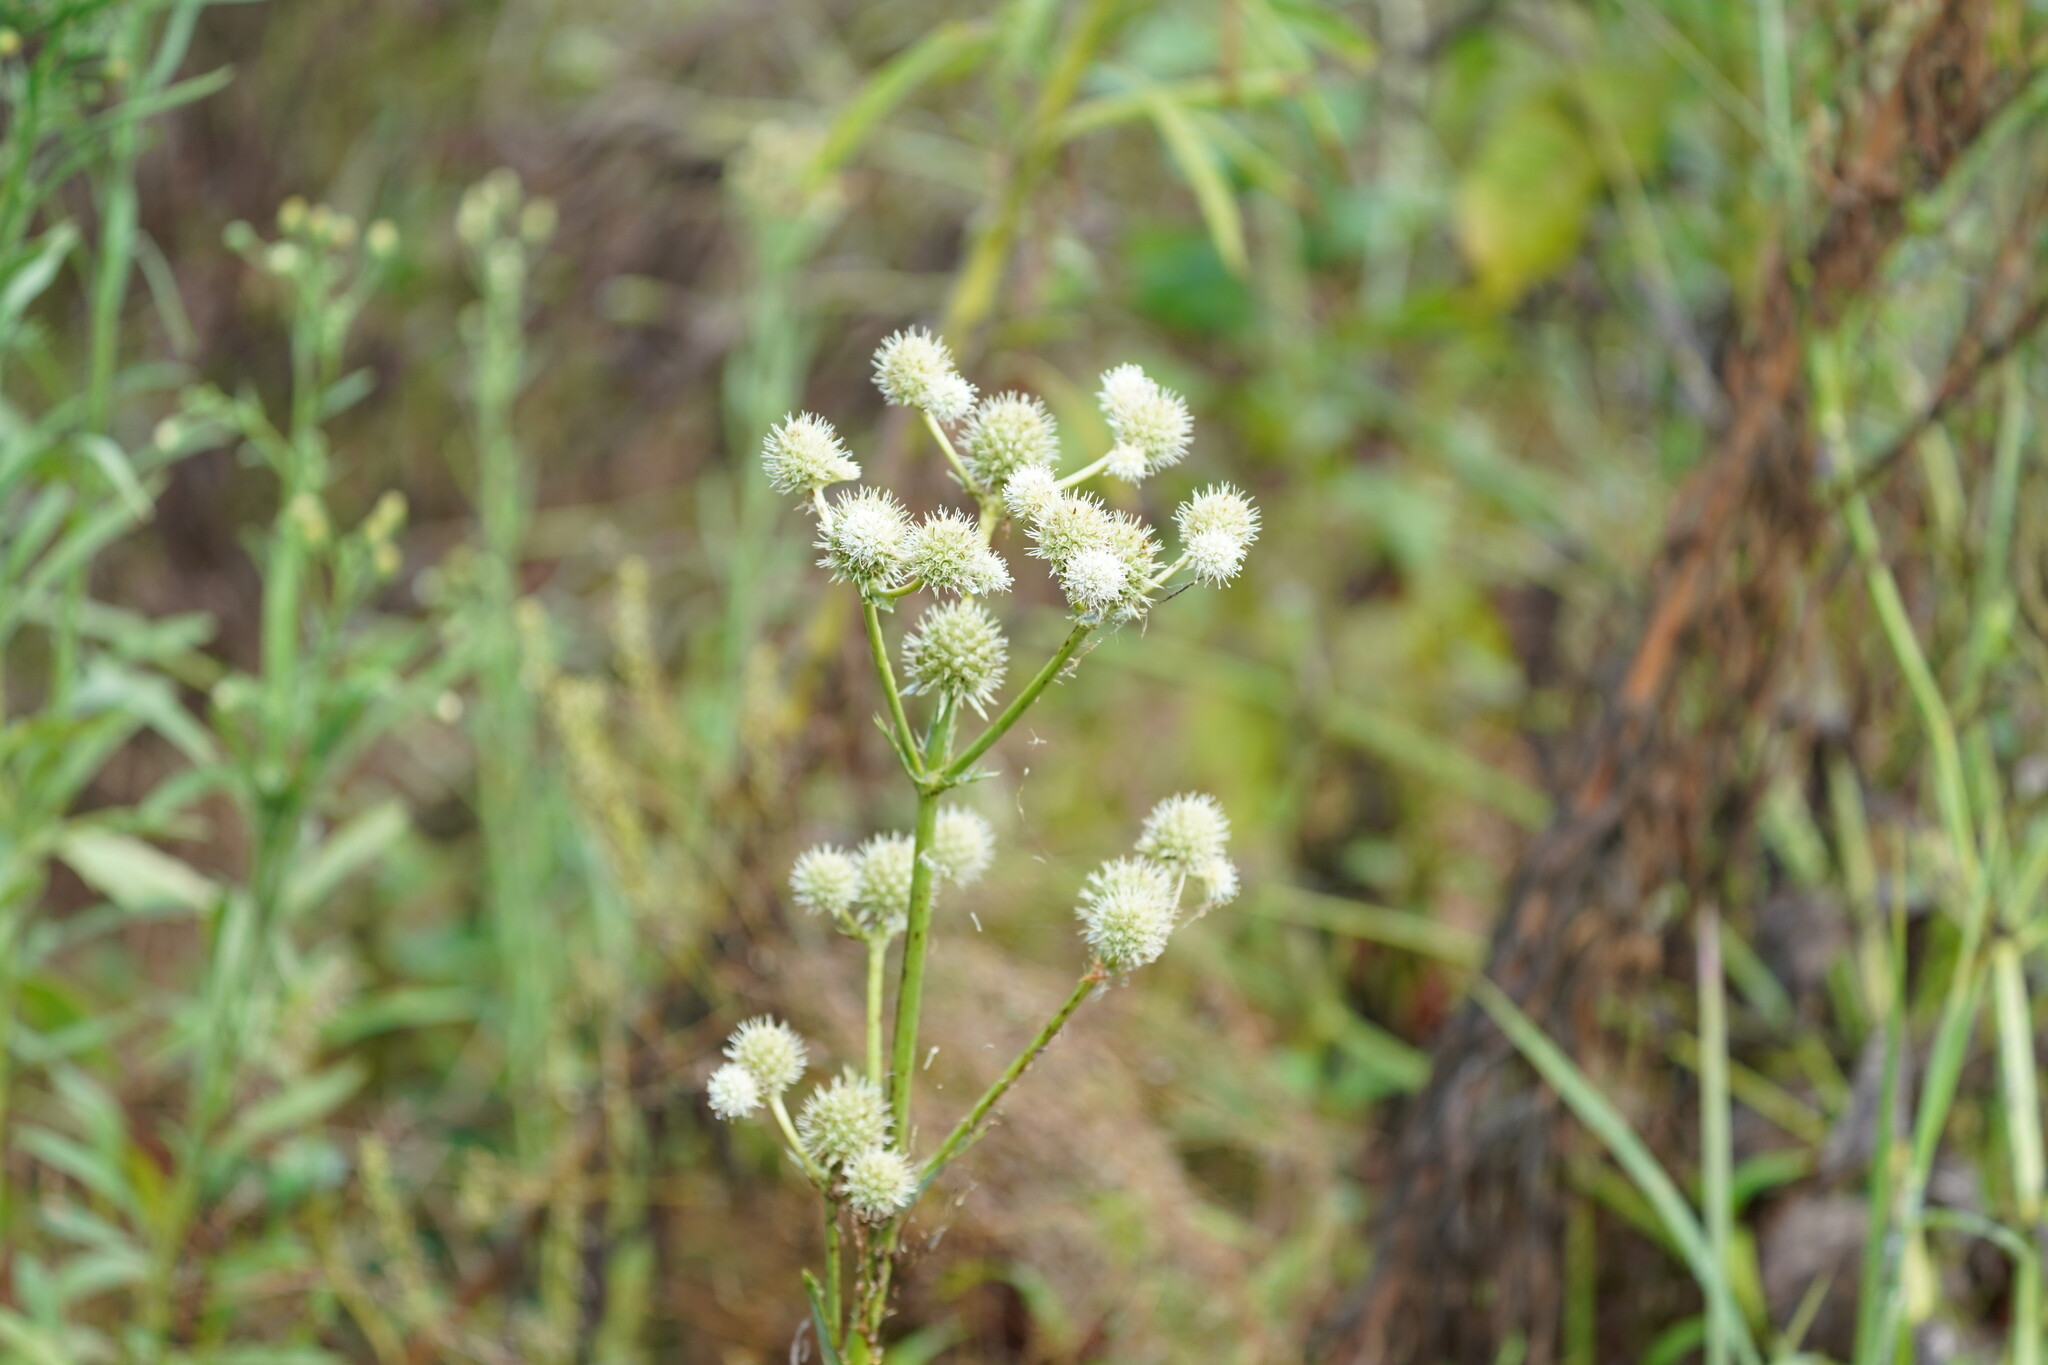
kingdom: Plantae
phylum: Tracheophyta
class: Magnoliopsida
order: Apiales
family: Apiaceae
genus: Eryngium
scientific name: Eryngium yuccifolium
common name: Button eryngo
